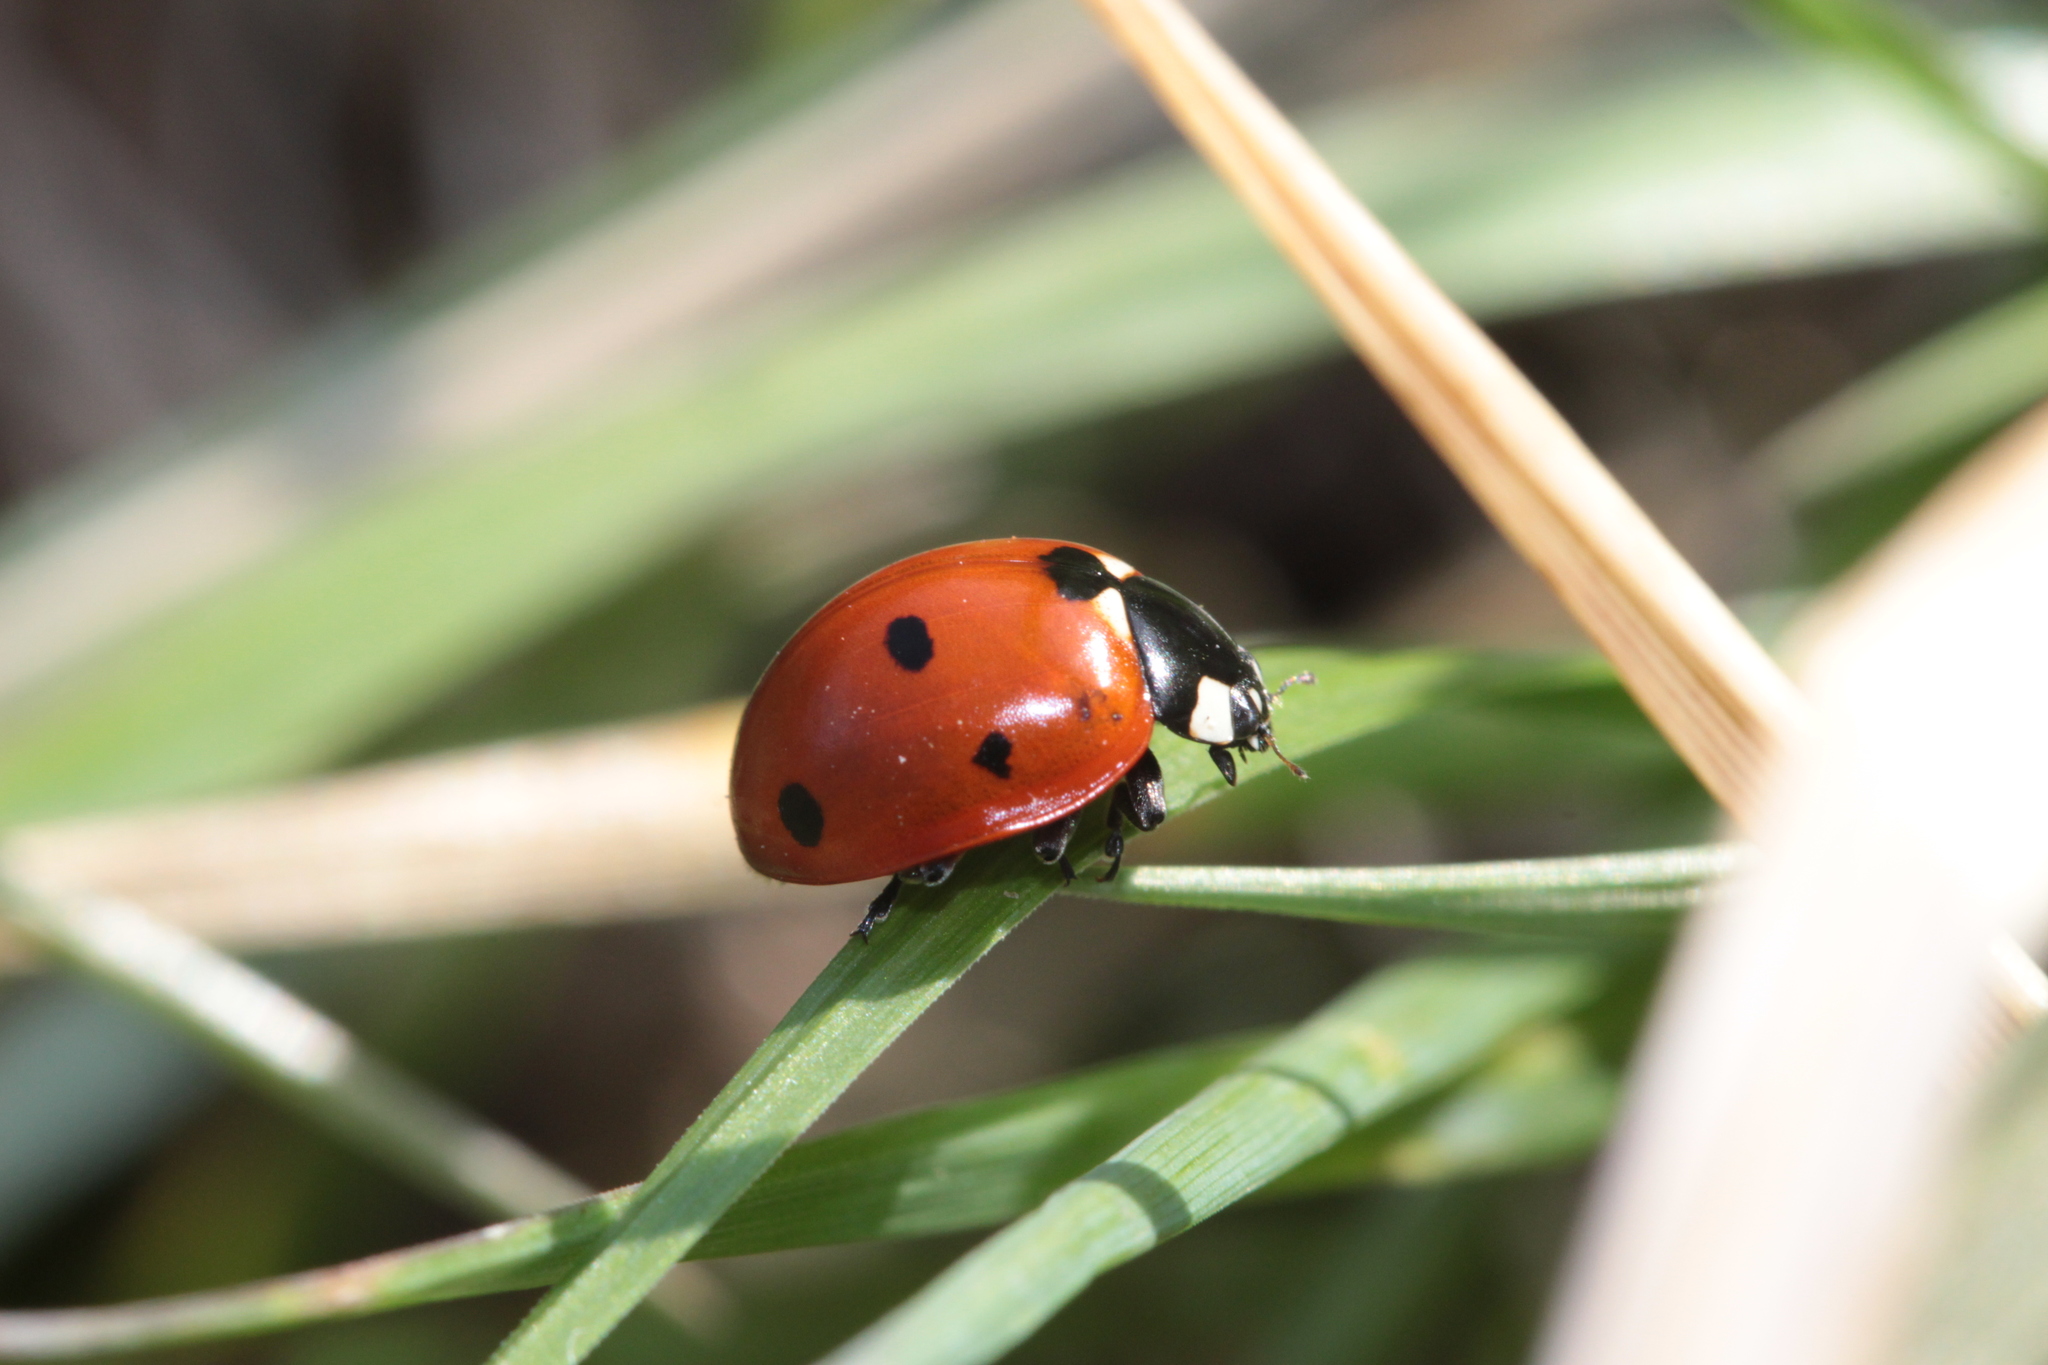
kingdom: Animalia
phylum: Arthropoda
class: Insecta
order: Coleoptera
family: Coccinellidae
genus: Coccinella
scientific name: Coccinella septempunctata
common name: Sevenspotted lady beetle
